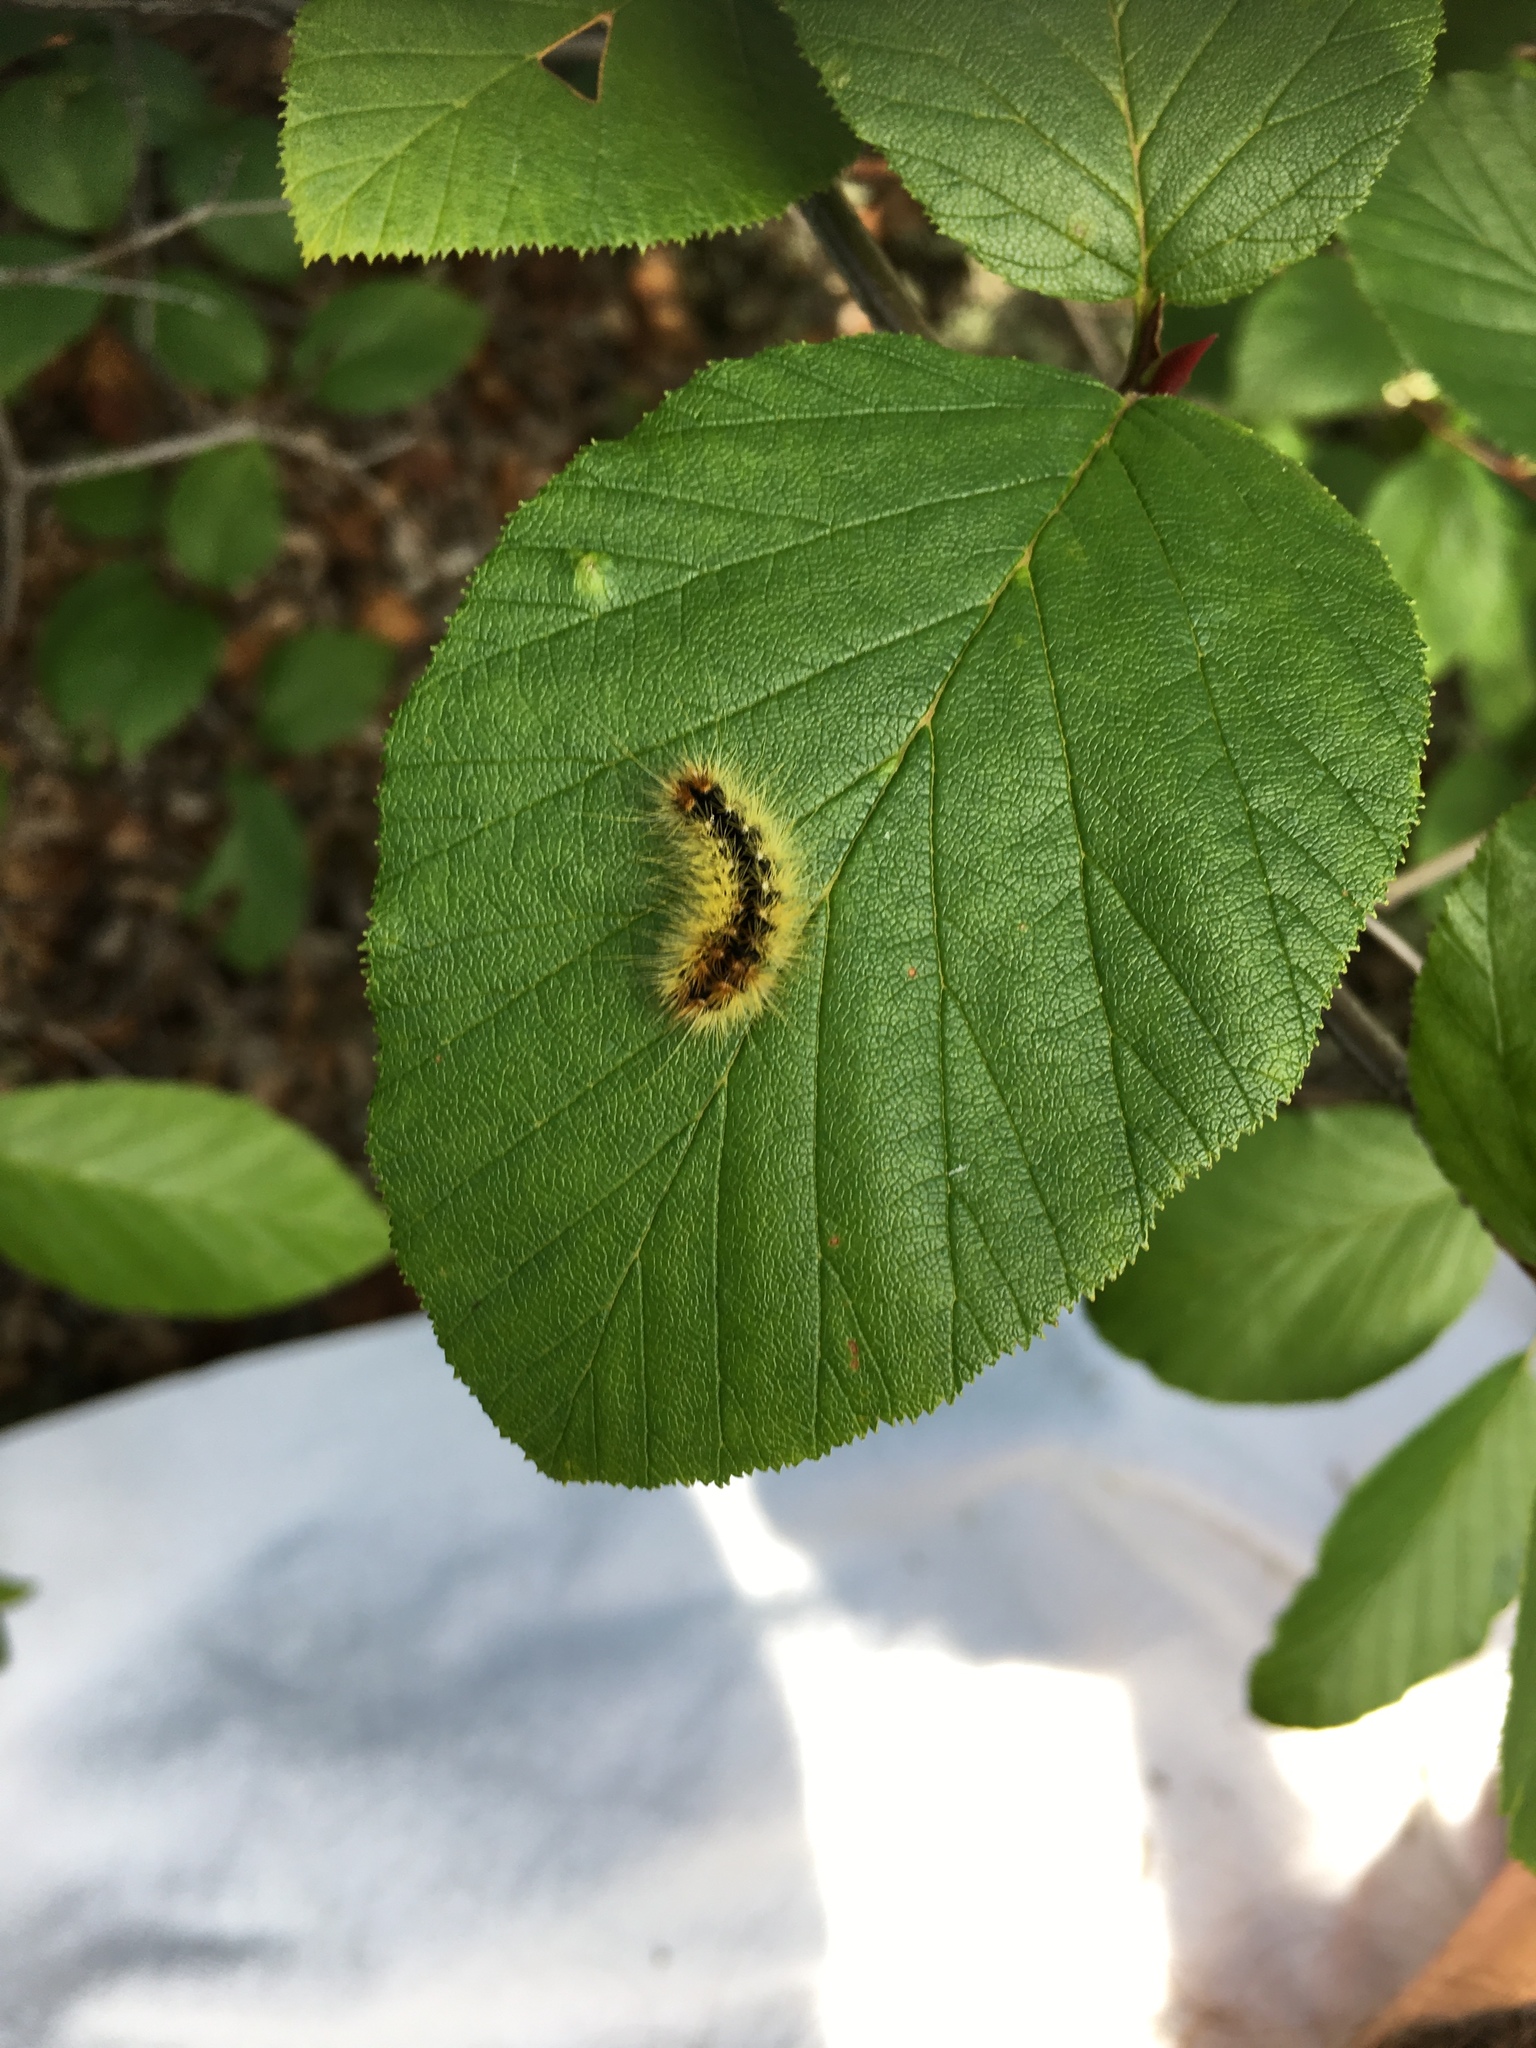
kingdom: Animalia
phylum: Arthropoda
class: Insecta
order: Lepidoptera
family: Noctuidae
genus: Acronicta
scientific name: Acronicta impressa
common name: Impressed dagger
